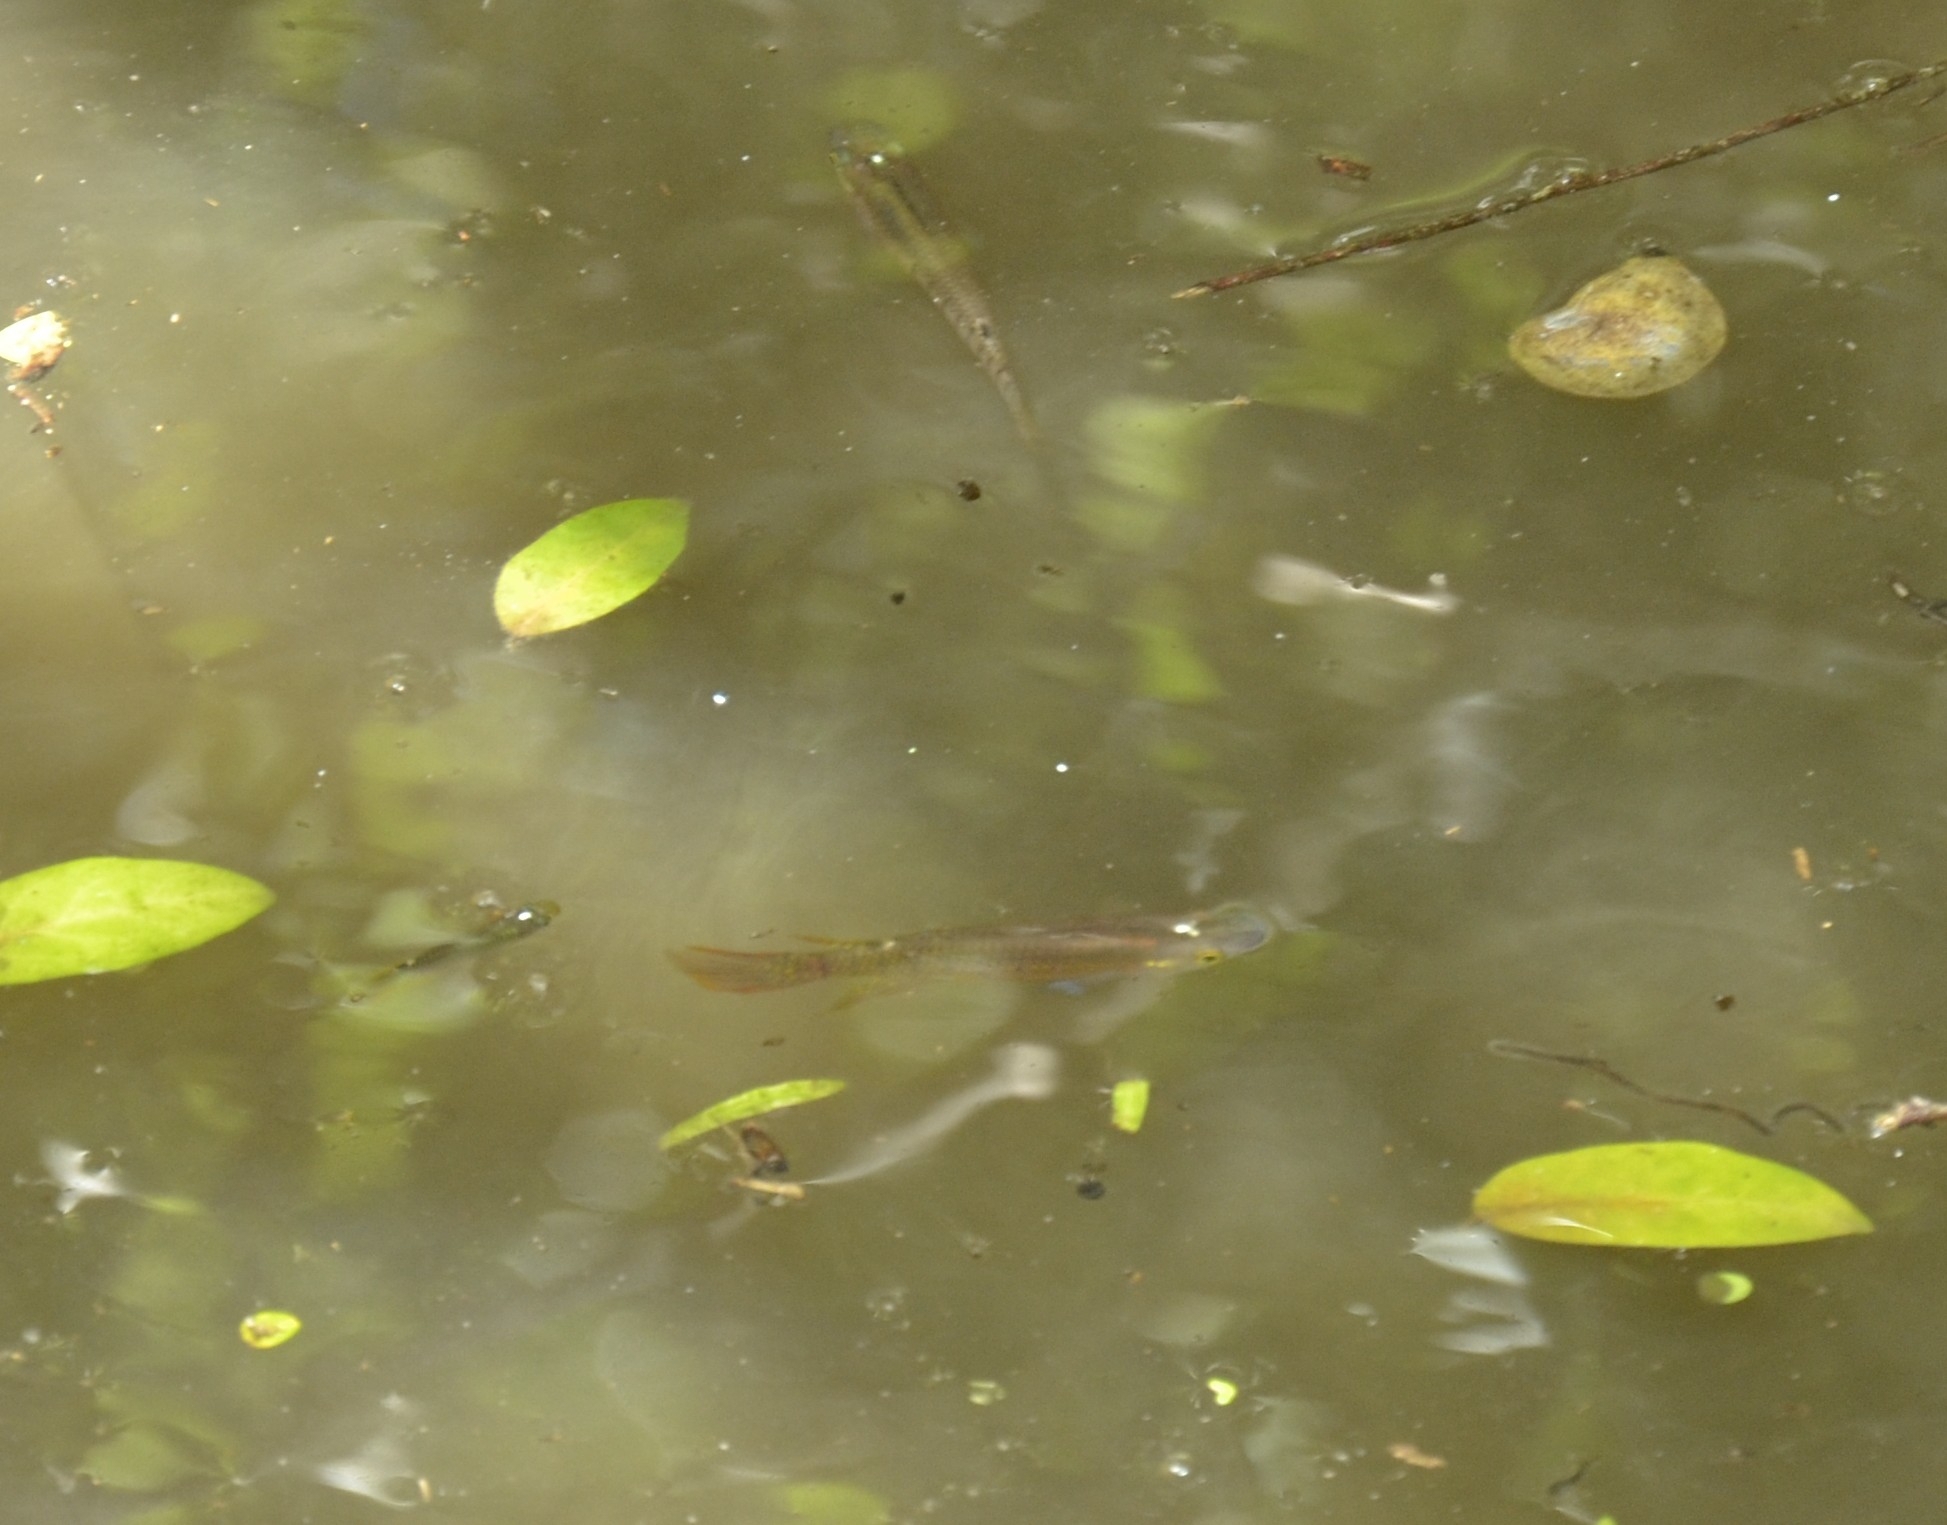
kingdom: Animalia
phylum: Chordata
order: Cyprinodontiformes
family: Aplocheilidae
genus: Aplocheilus
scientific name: Aplocheilus lineatus
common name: Striped panchax
